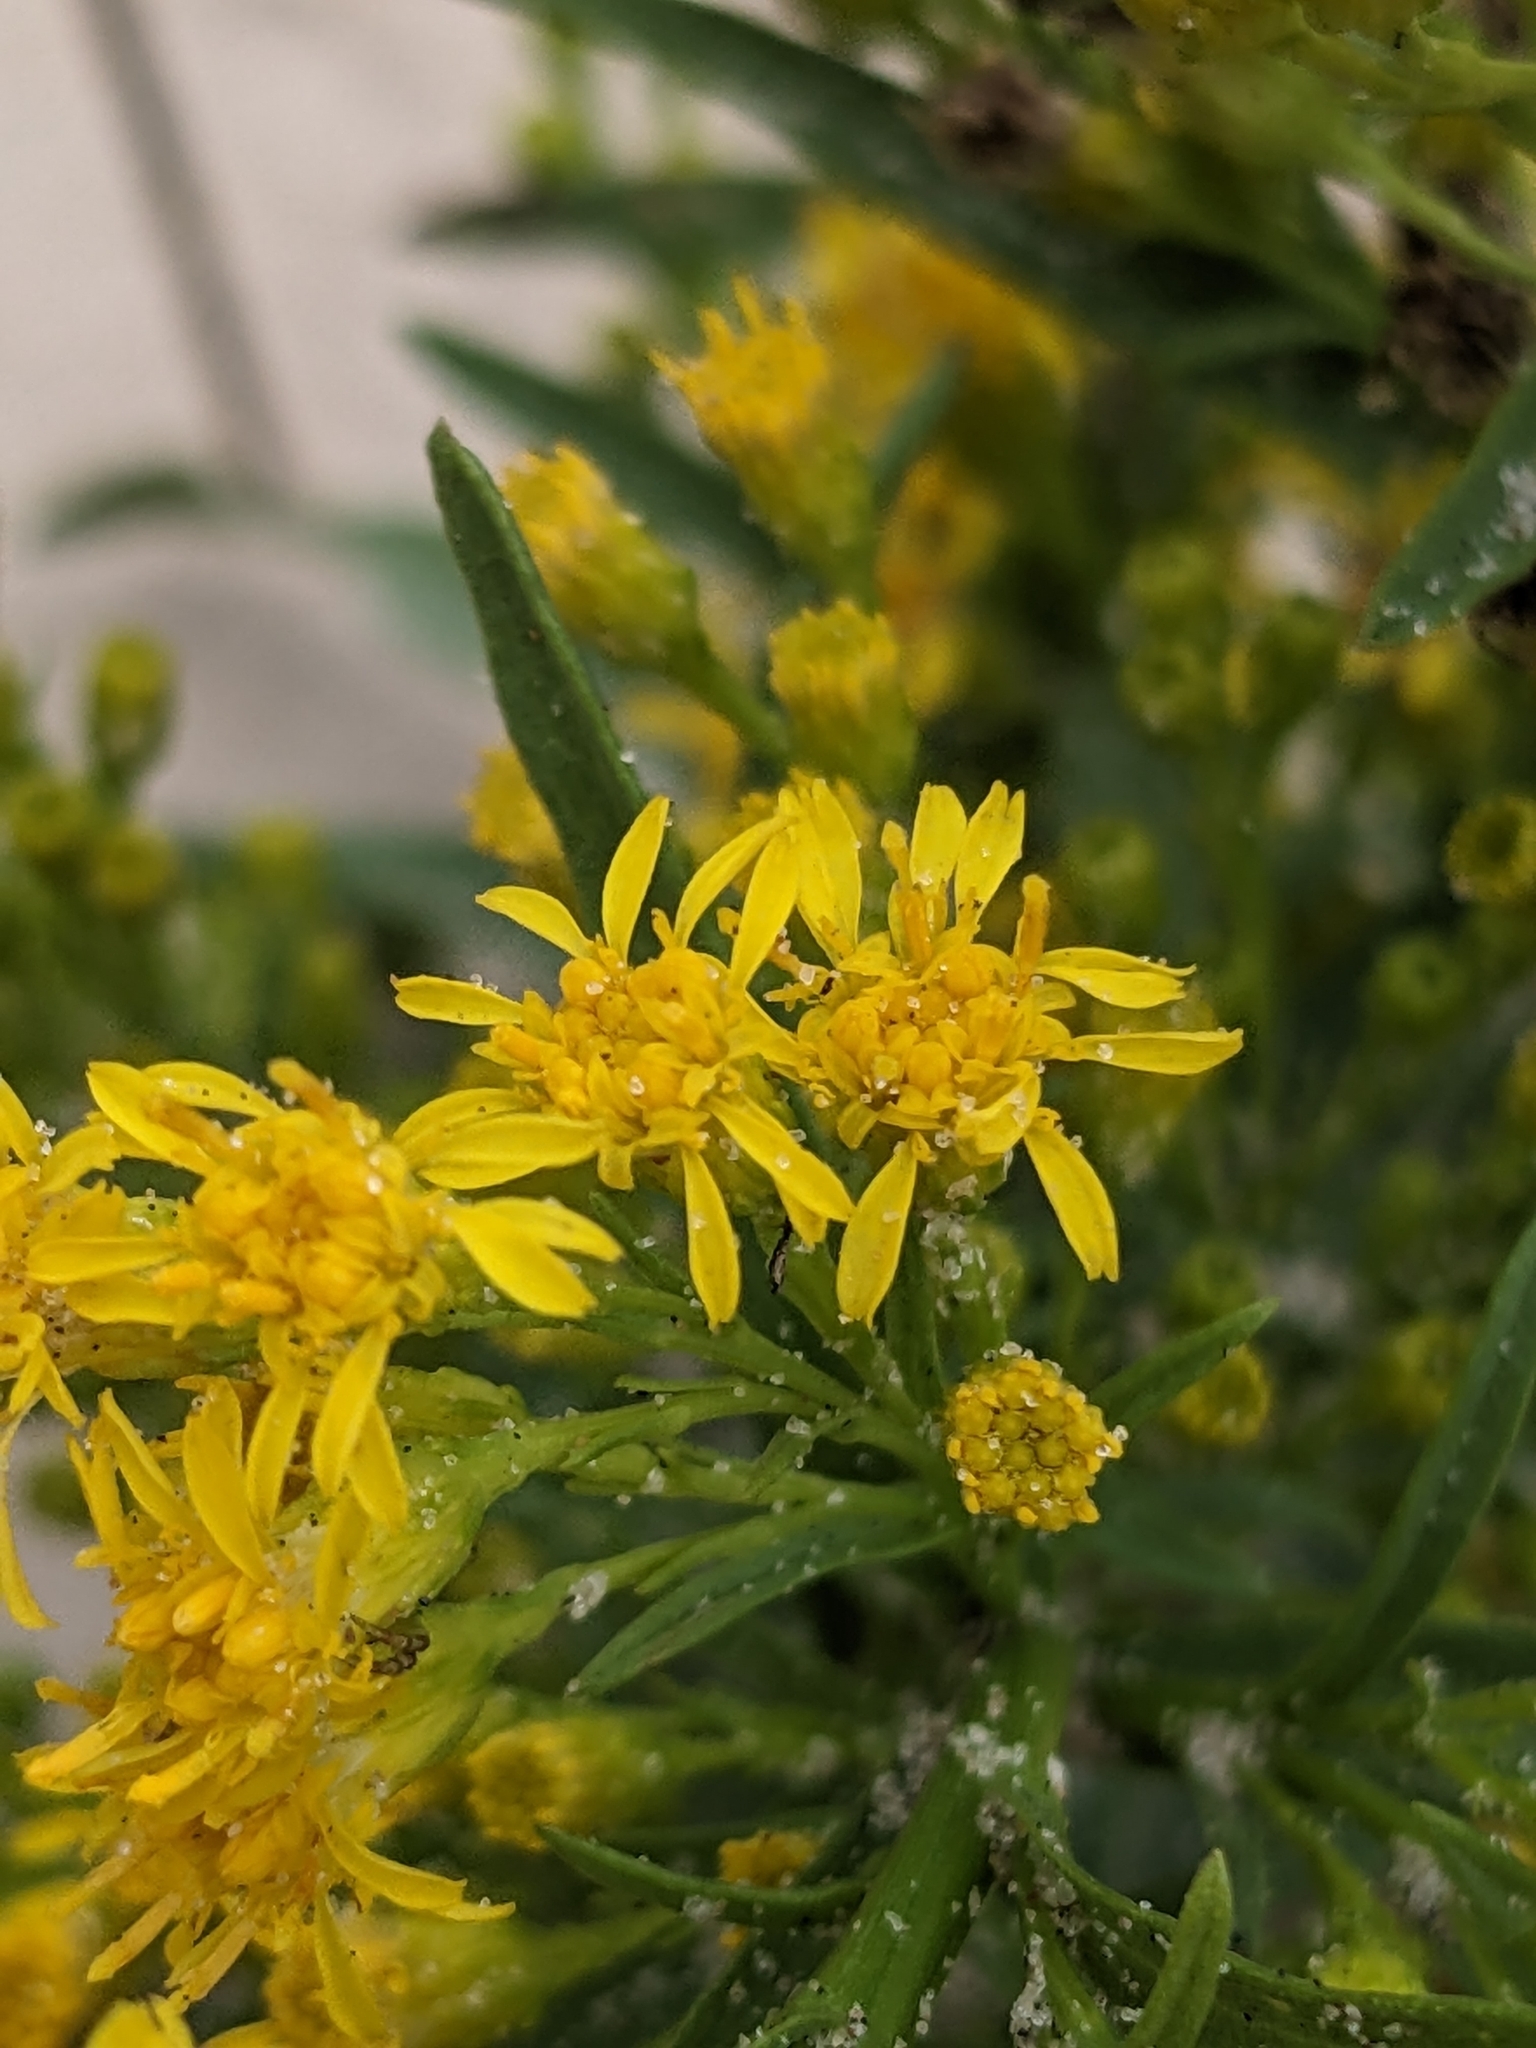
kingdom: Plantae
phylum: Tracheophyta
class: Magnoliopsida
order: Asterales
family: Asteraceae
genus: Solidago
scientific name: Solidago mexicana
